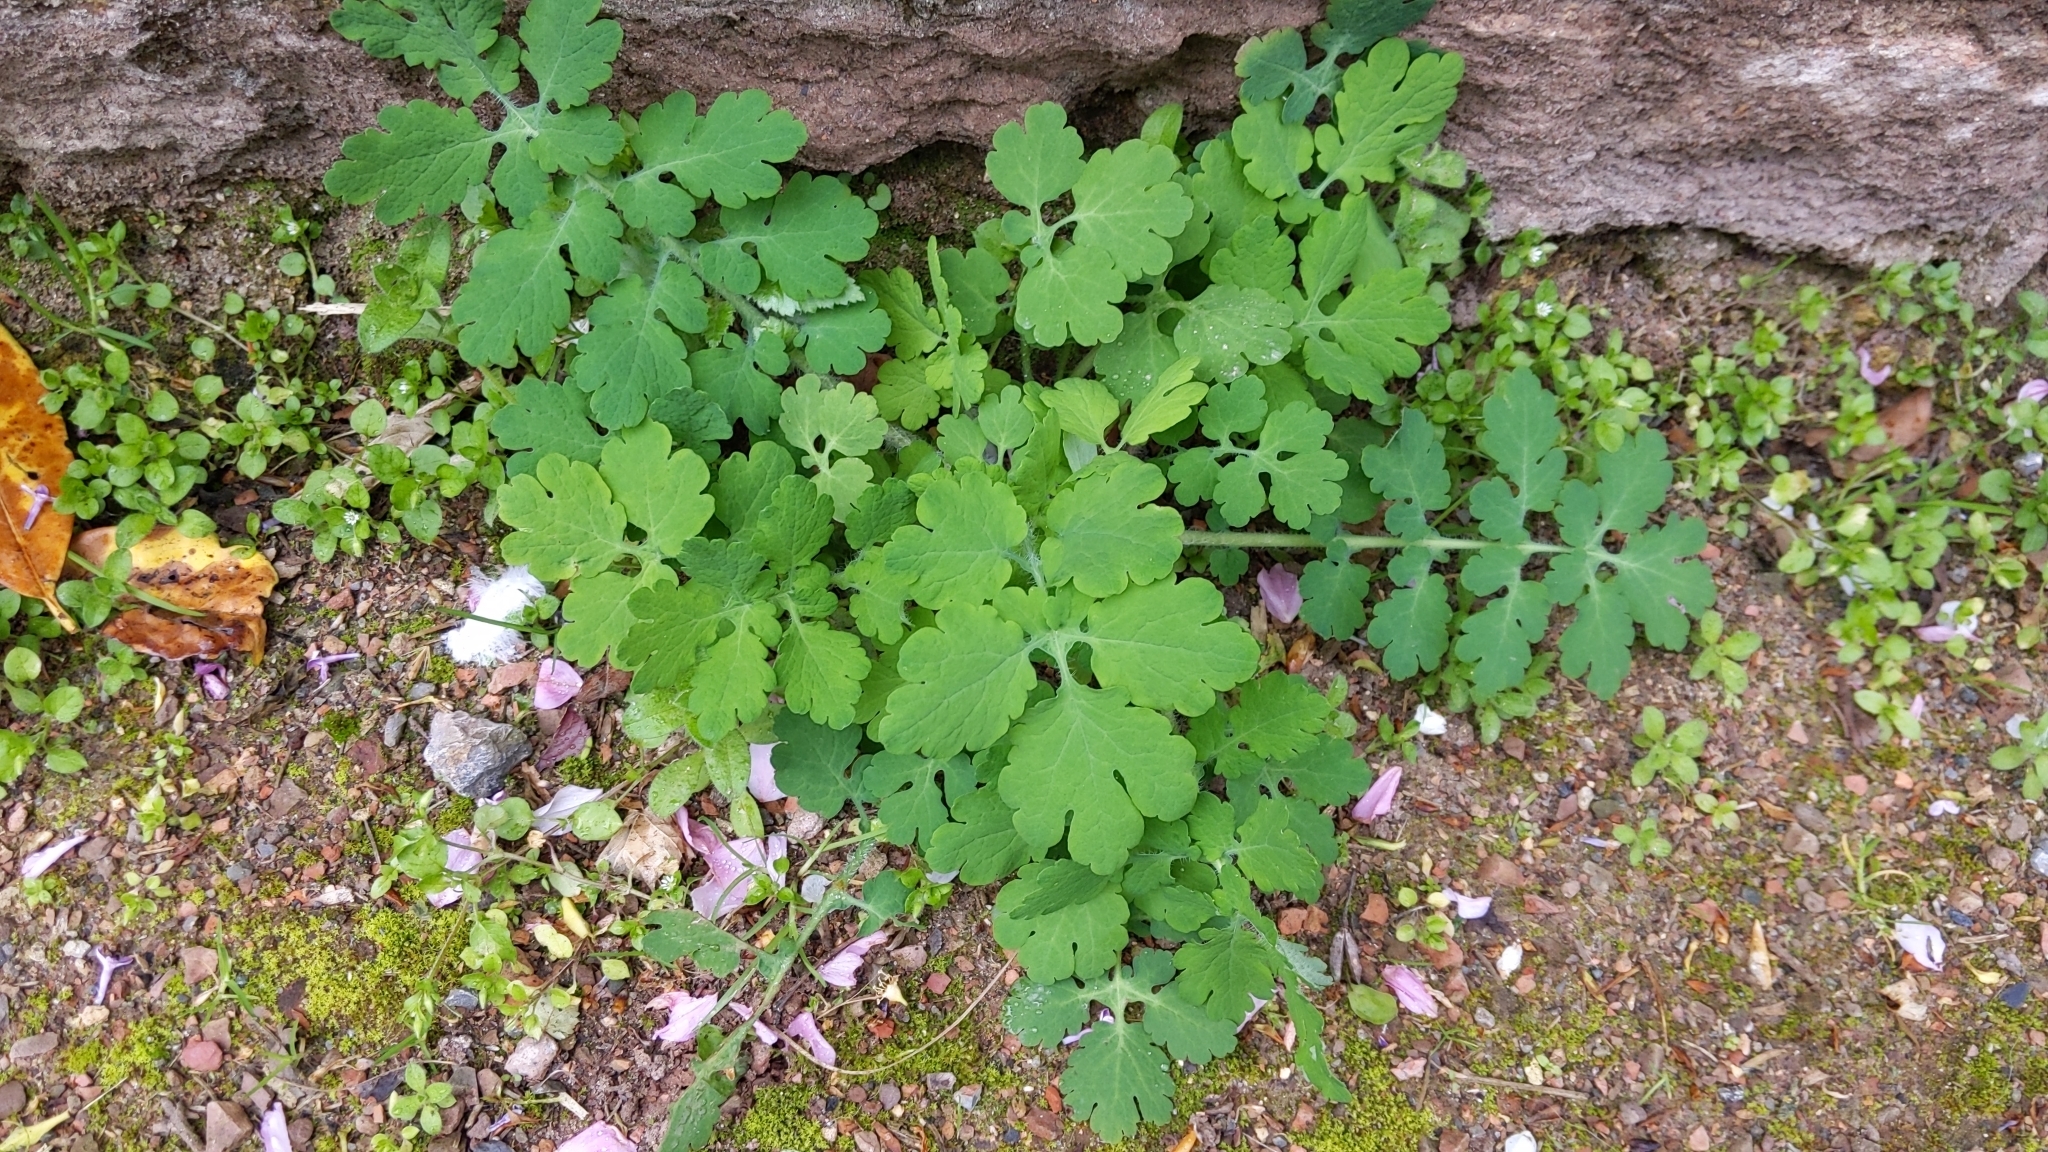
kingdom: Plantae
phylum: Tracheophyta
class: Magnoliopsida
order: Ranunculales
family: Papaveraceae
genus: Chelidonium
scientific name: Chelidonium majus
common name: Greater celandine
